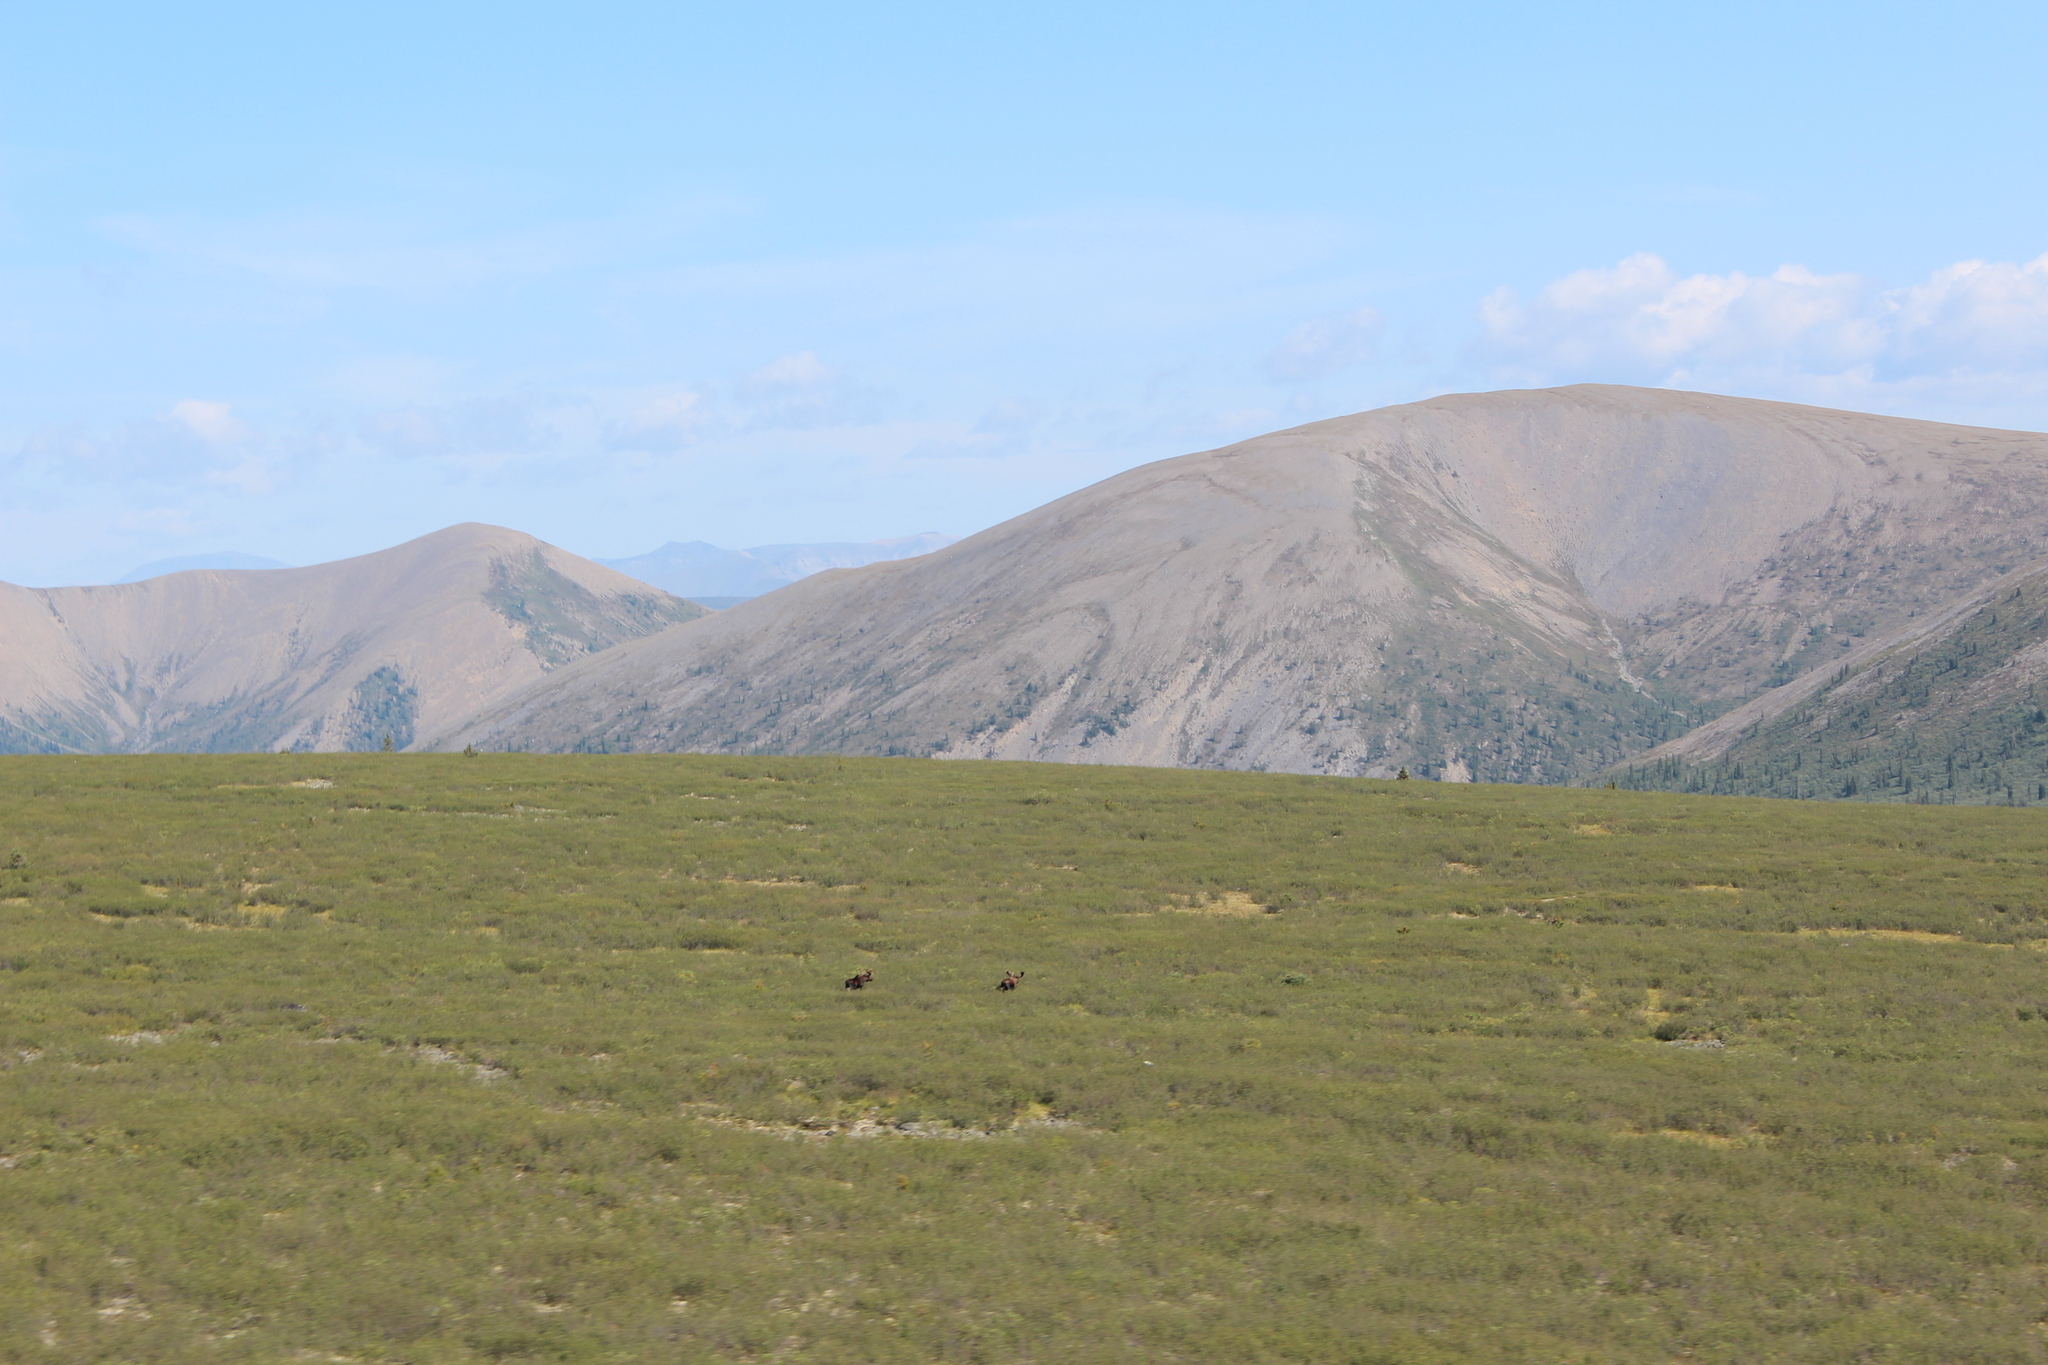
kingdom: Animalia
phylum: Chordata
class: Mammalia
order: Artiodactyla
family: Cervidae
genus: Alces
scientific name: Alces alces
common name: Moose
